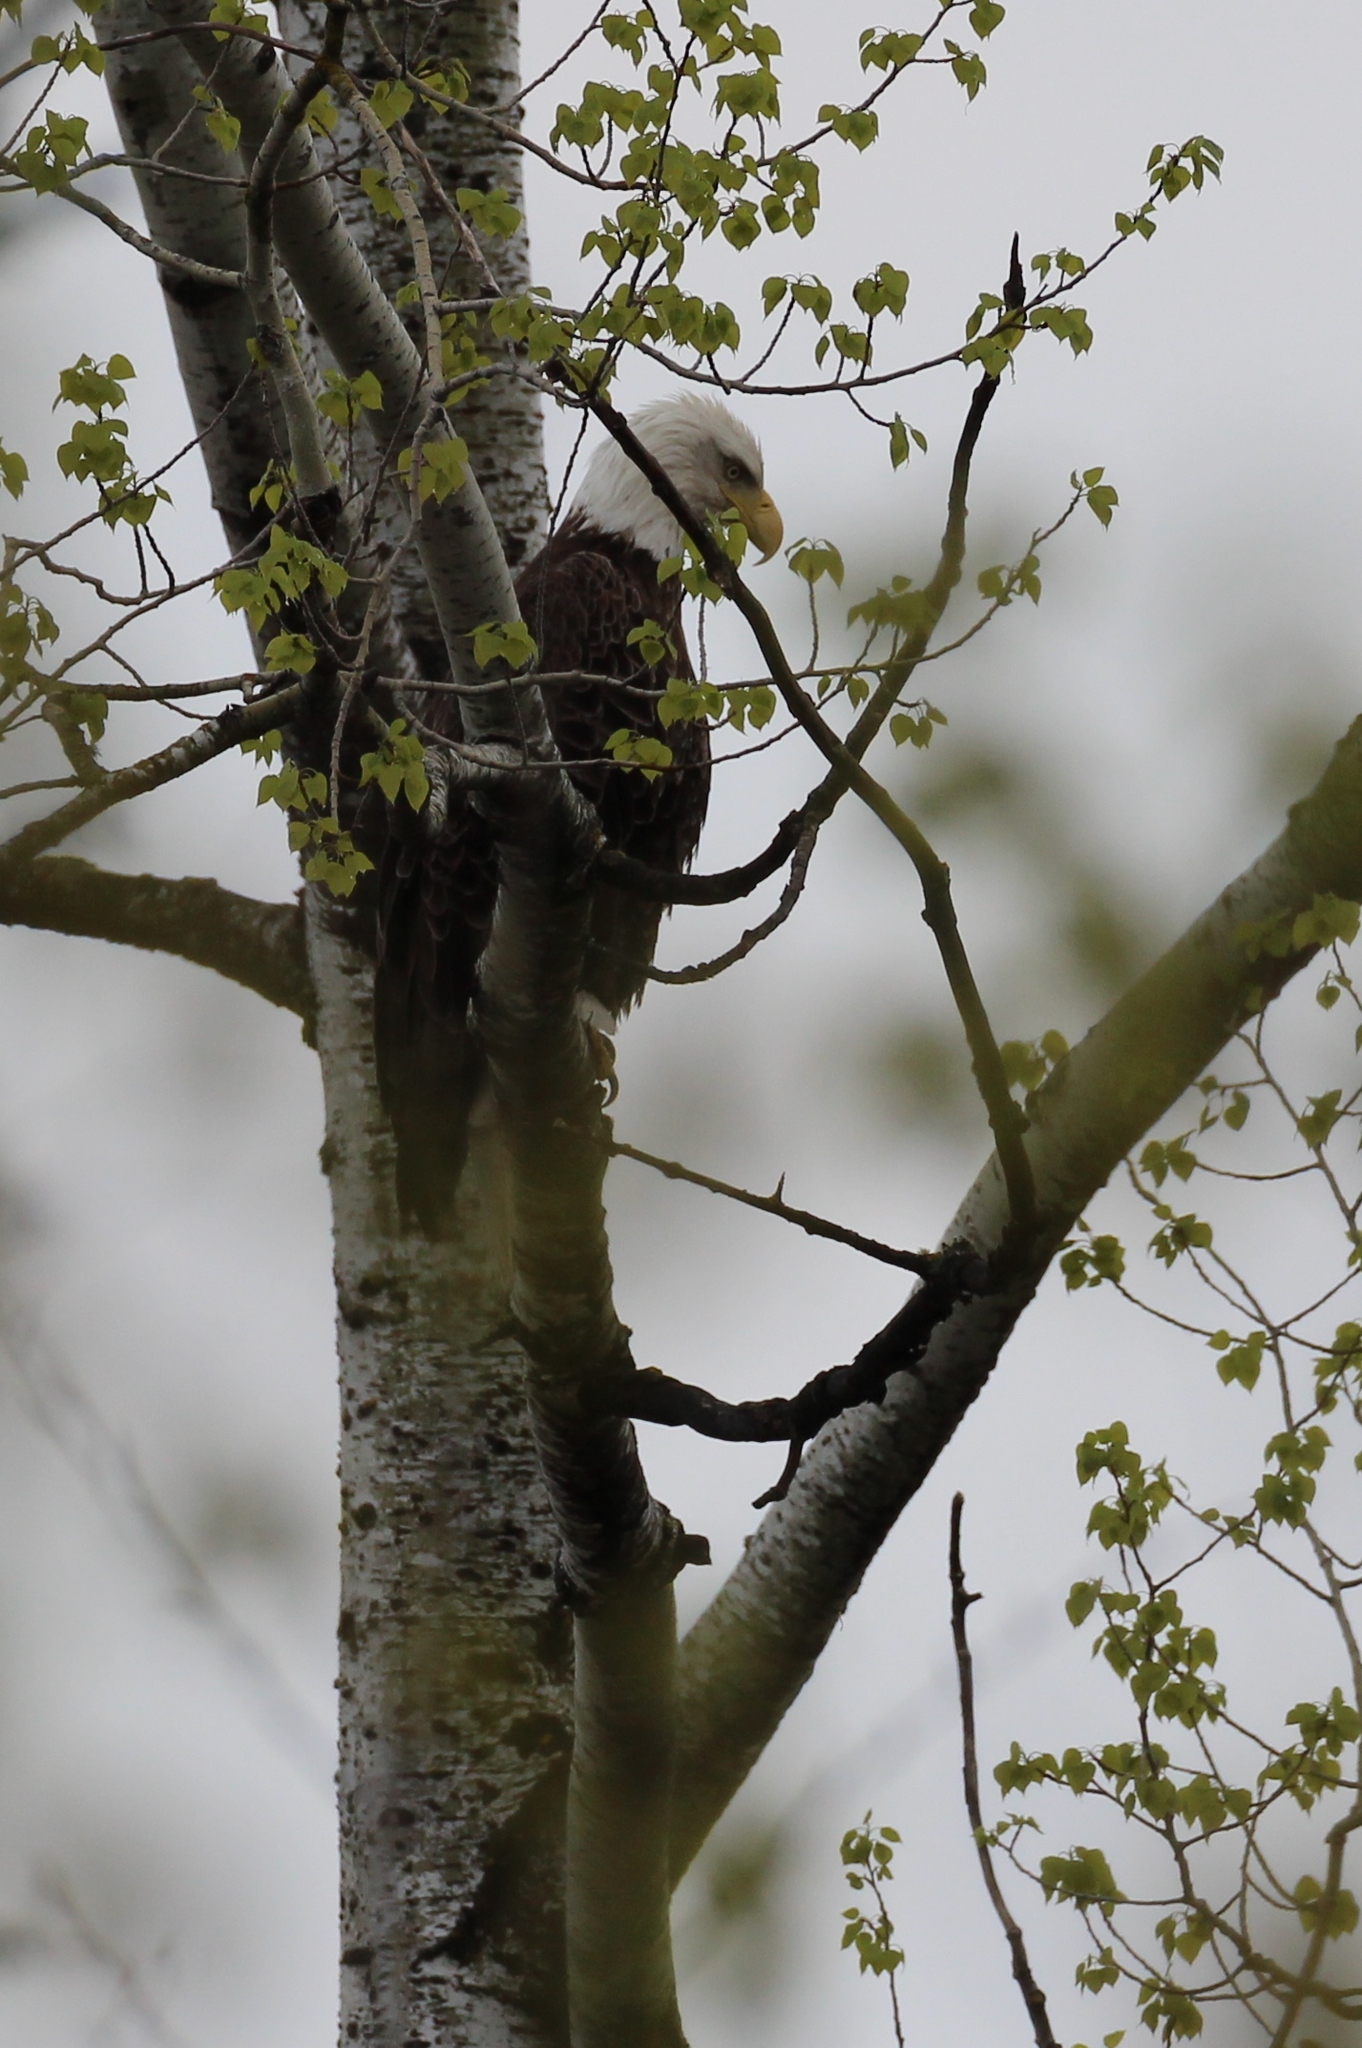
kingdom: Animalia
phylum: Chordata
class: Aves
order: Accipitriformes
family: Accipitridae
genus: Haliaeetus
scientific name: Haliaeetus leucocephalus
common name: Bald eagle
